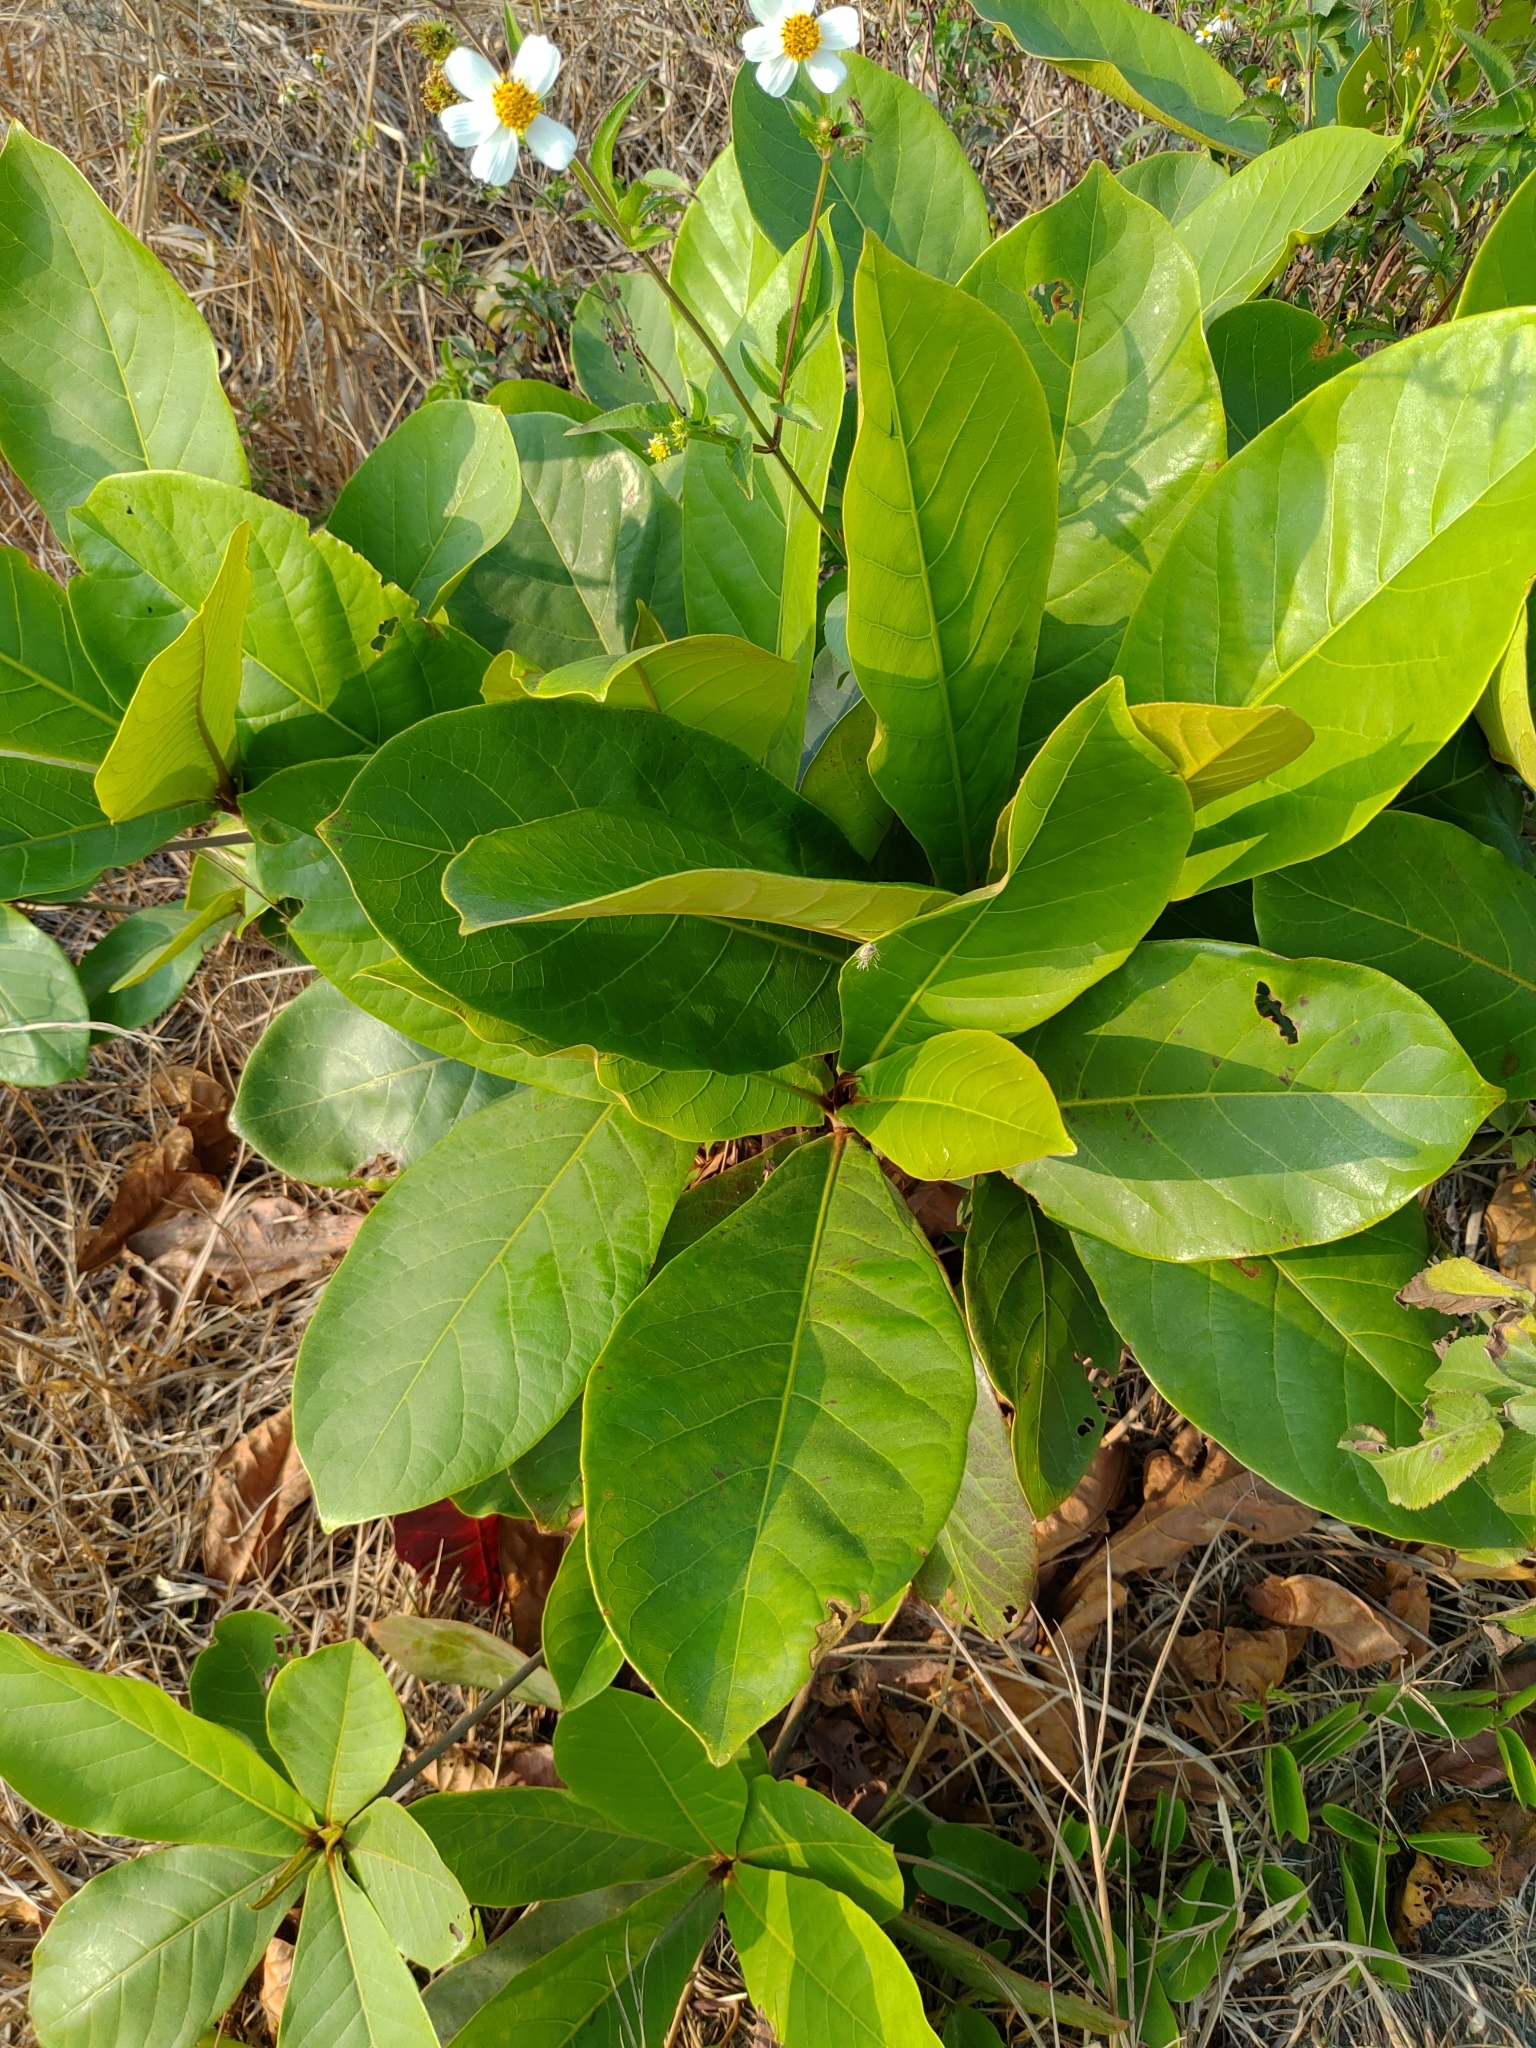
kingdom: Plantae
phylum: Tracheophyta
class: Magnoliopsida
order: Myrtales
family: Combretaceae
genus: Terminalia
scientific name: Terminalia catappa
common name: Tropical almond
